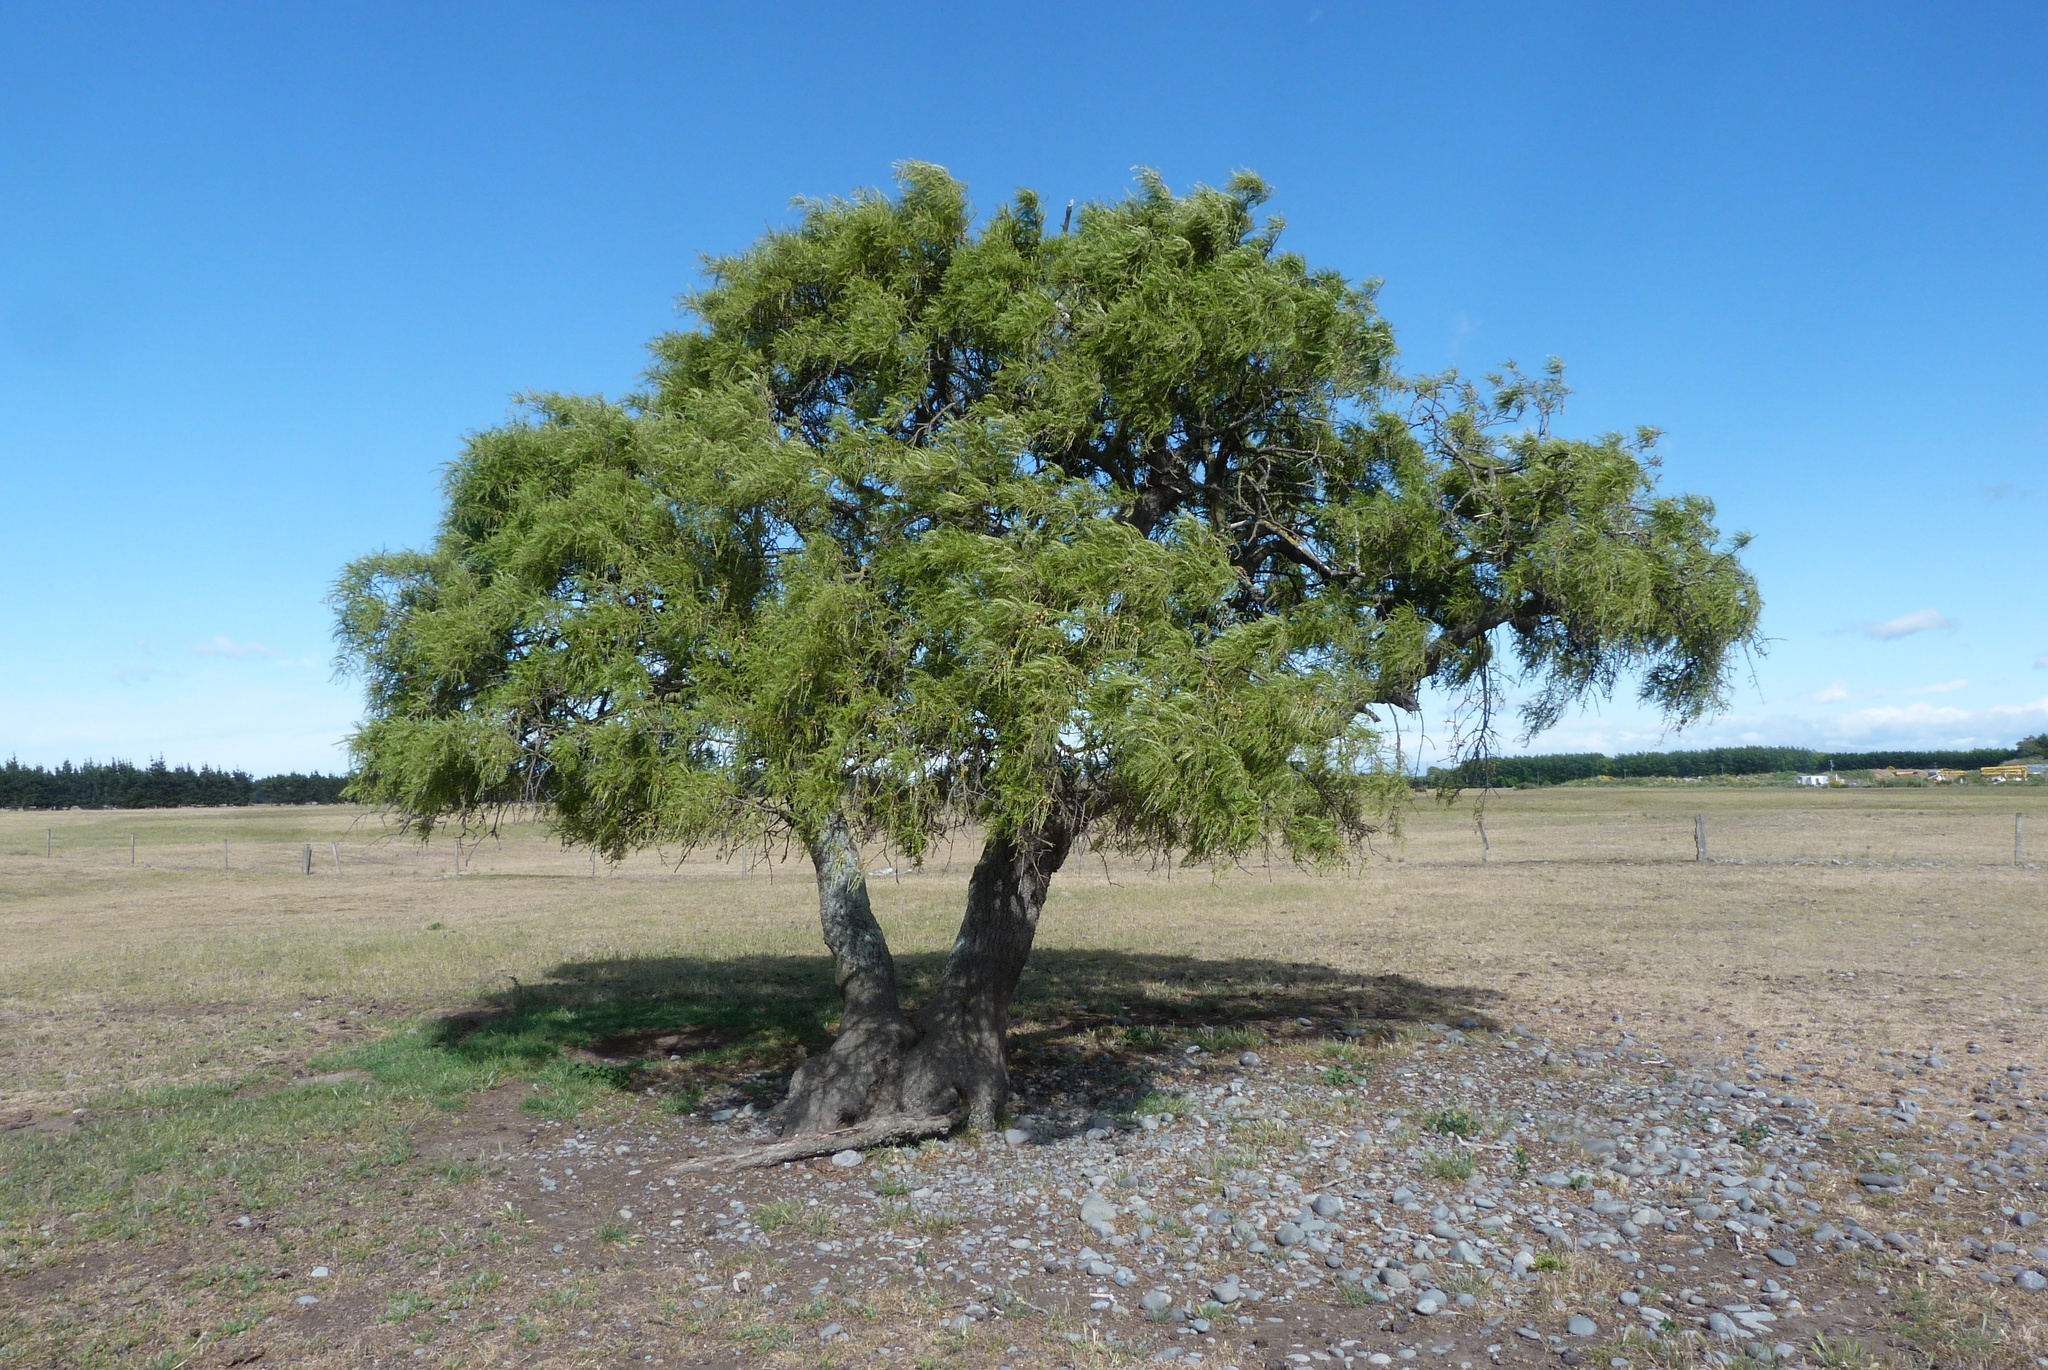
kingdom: Plantae
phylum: Tracheophyta
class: Magnoliopsida
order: Fabales
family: Fabaceae
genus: Sophora
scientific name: Sophora microphylla
